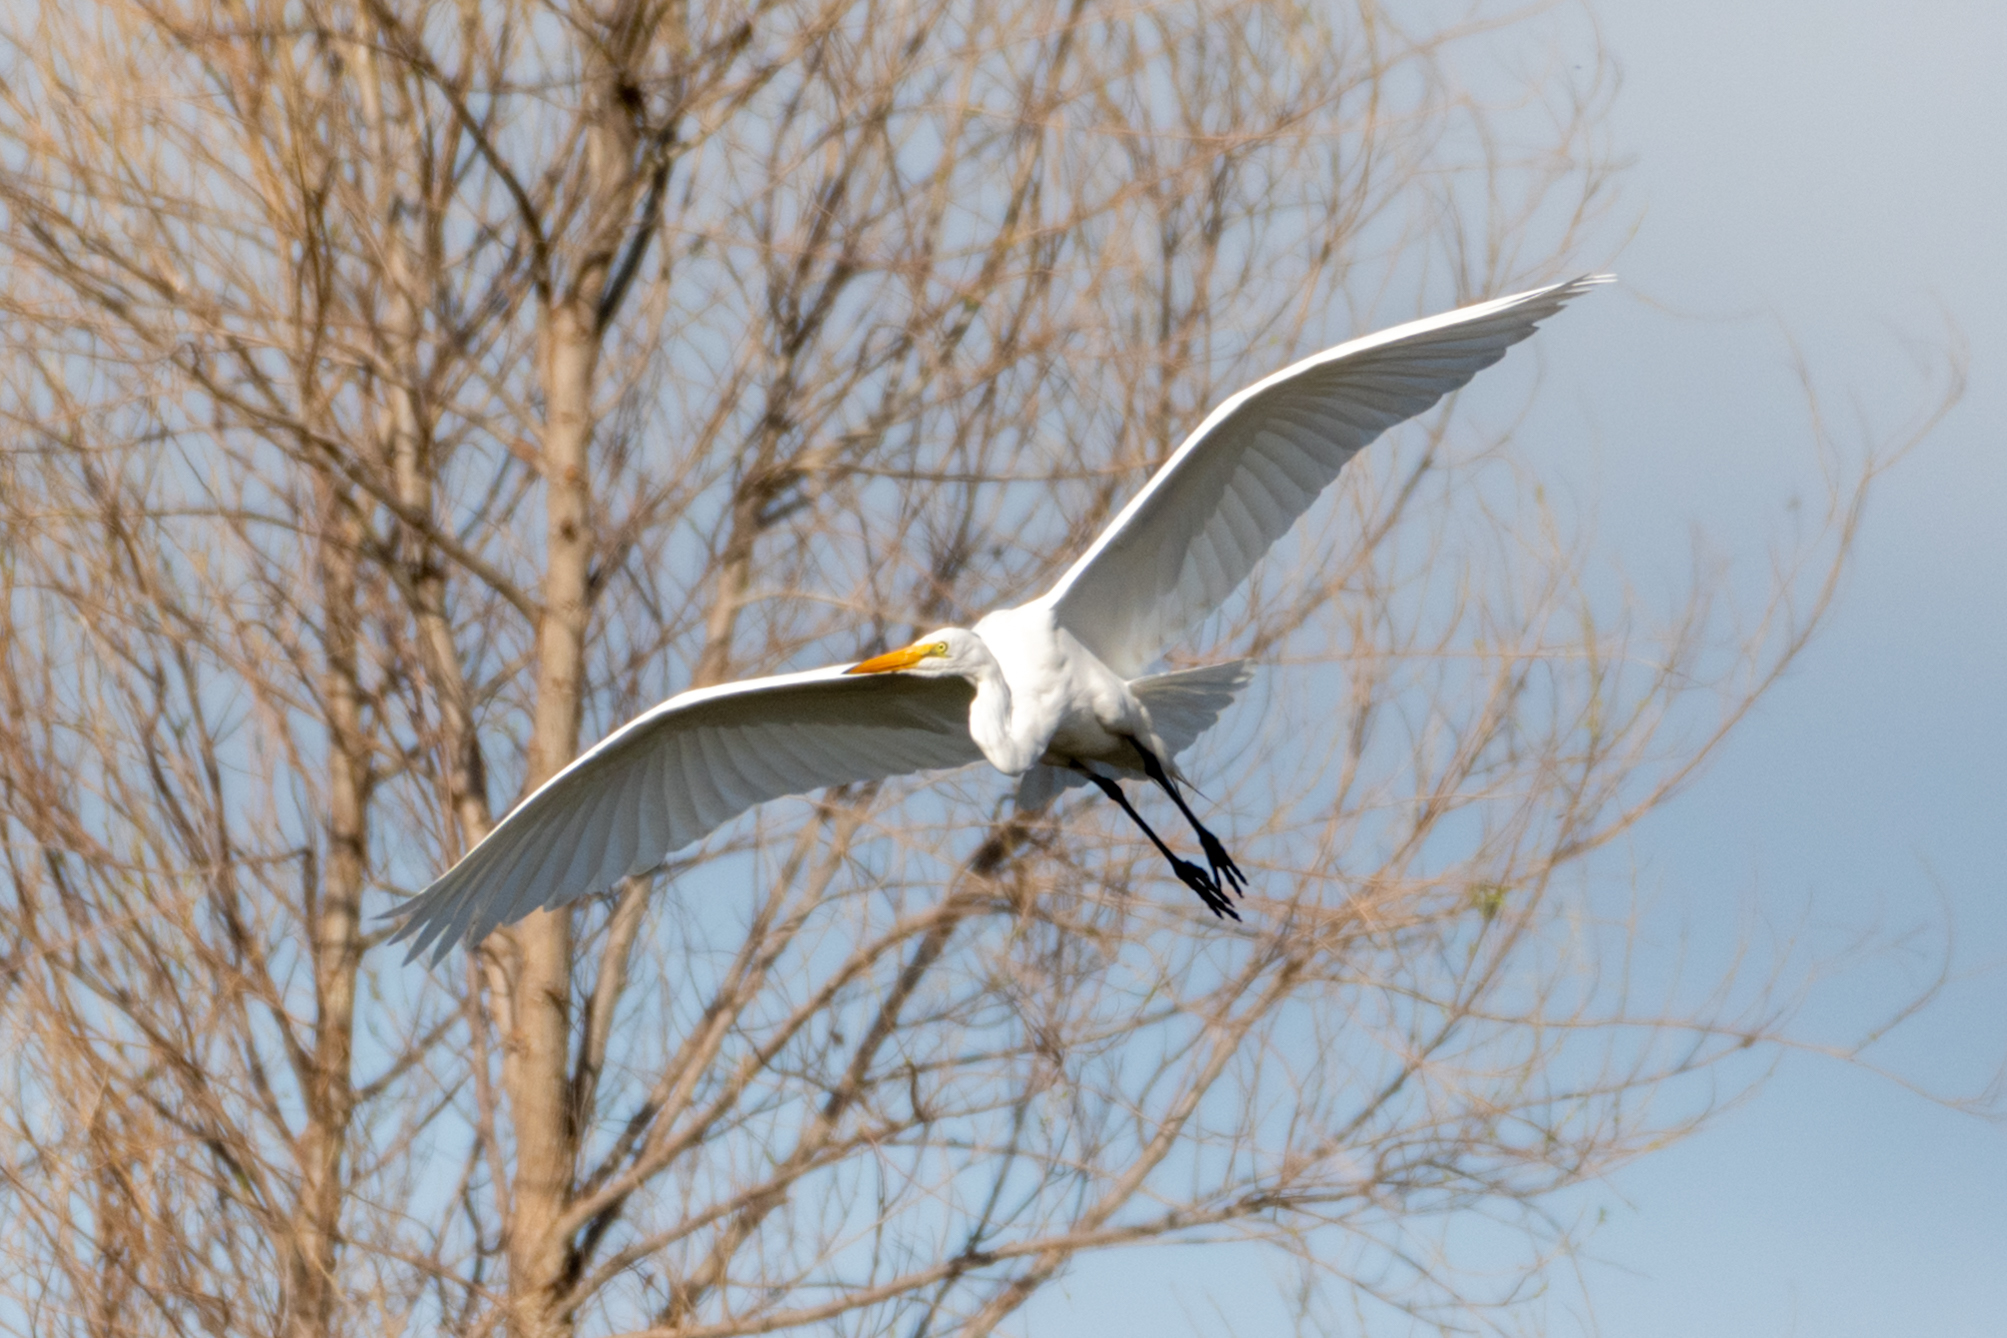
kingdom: Animalia
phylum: Chordata
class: Aves
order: Pelecaniformes
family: Ardeidae
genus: Ardea
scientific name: Ardea alba
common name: Great egret
